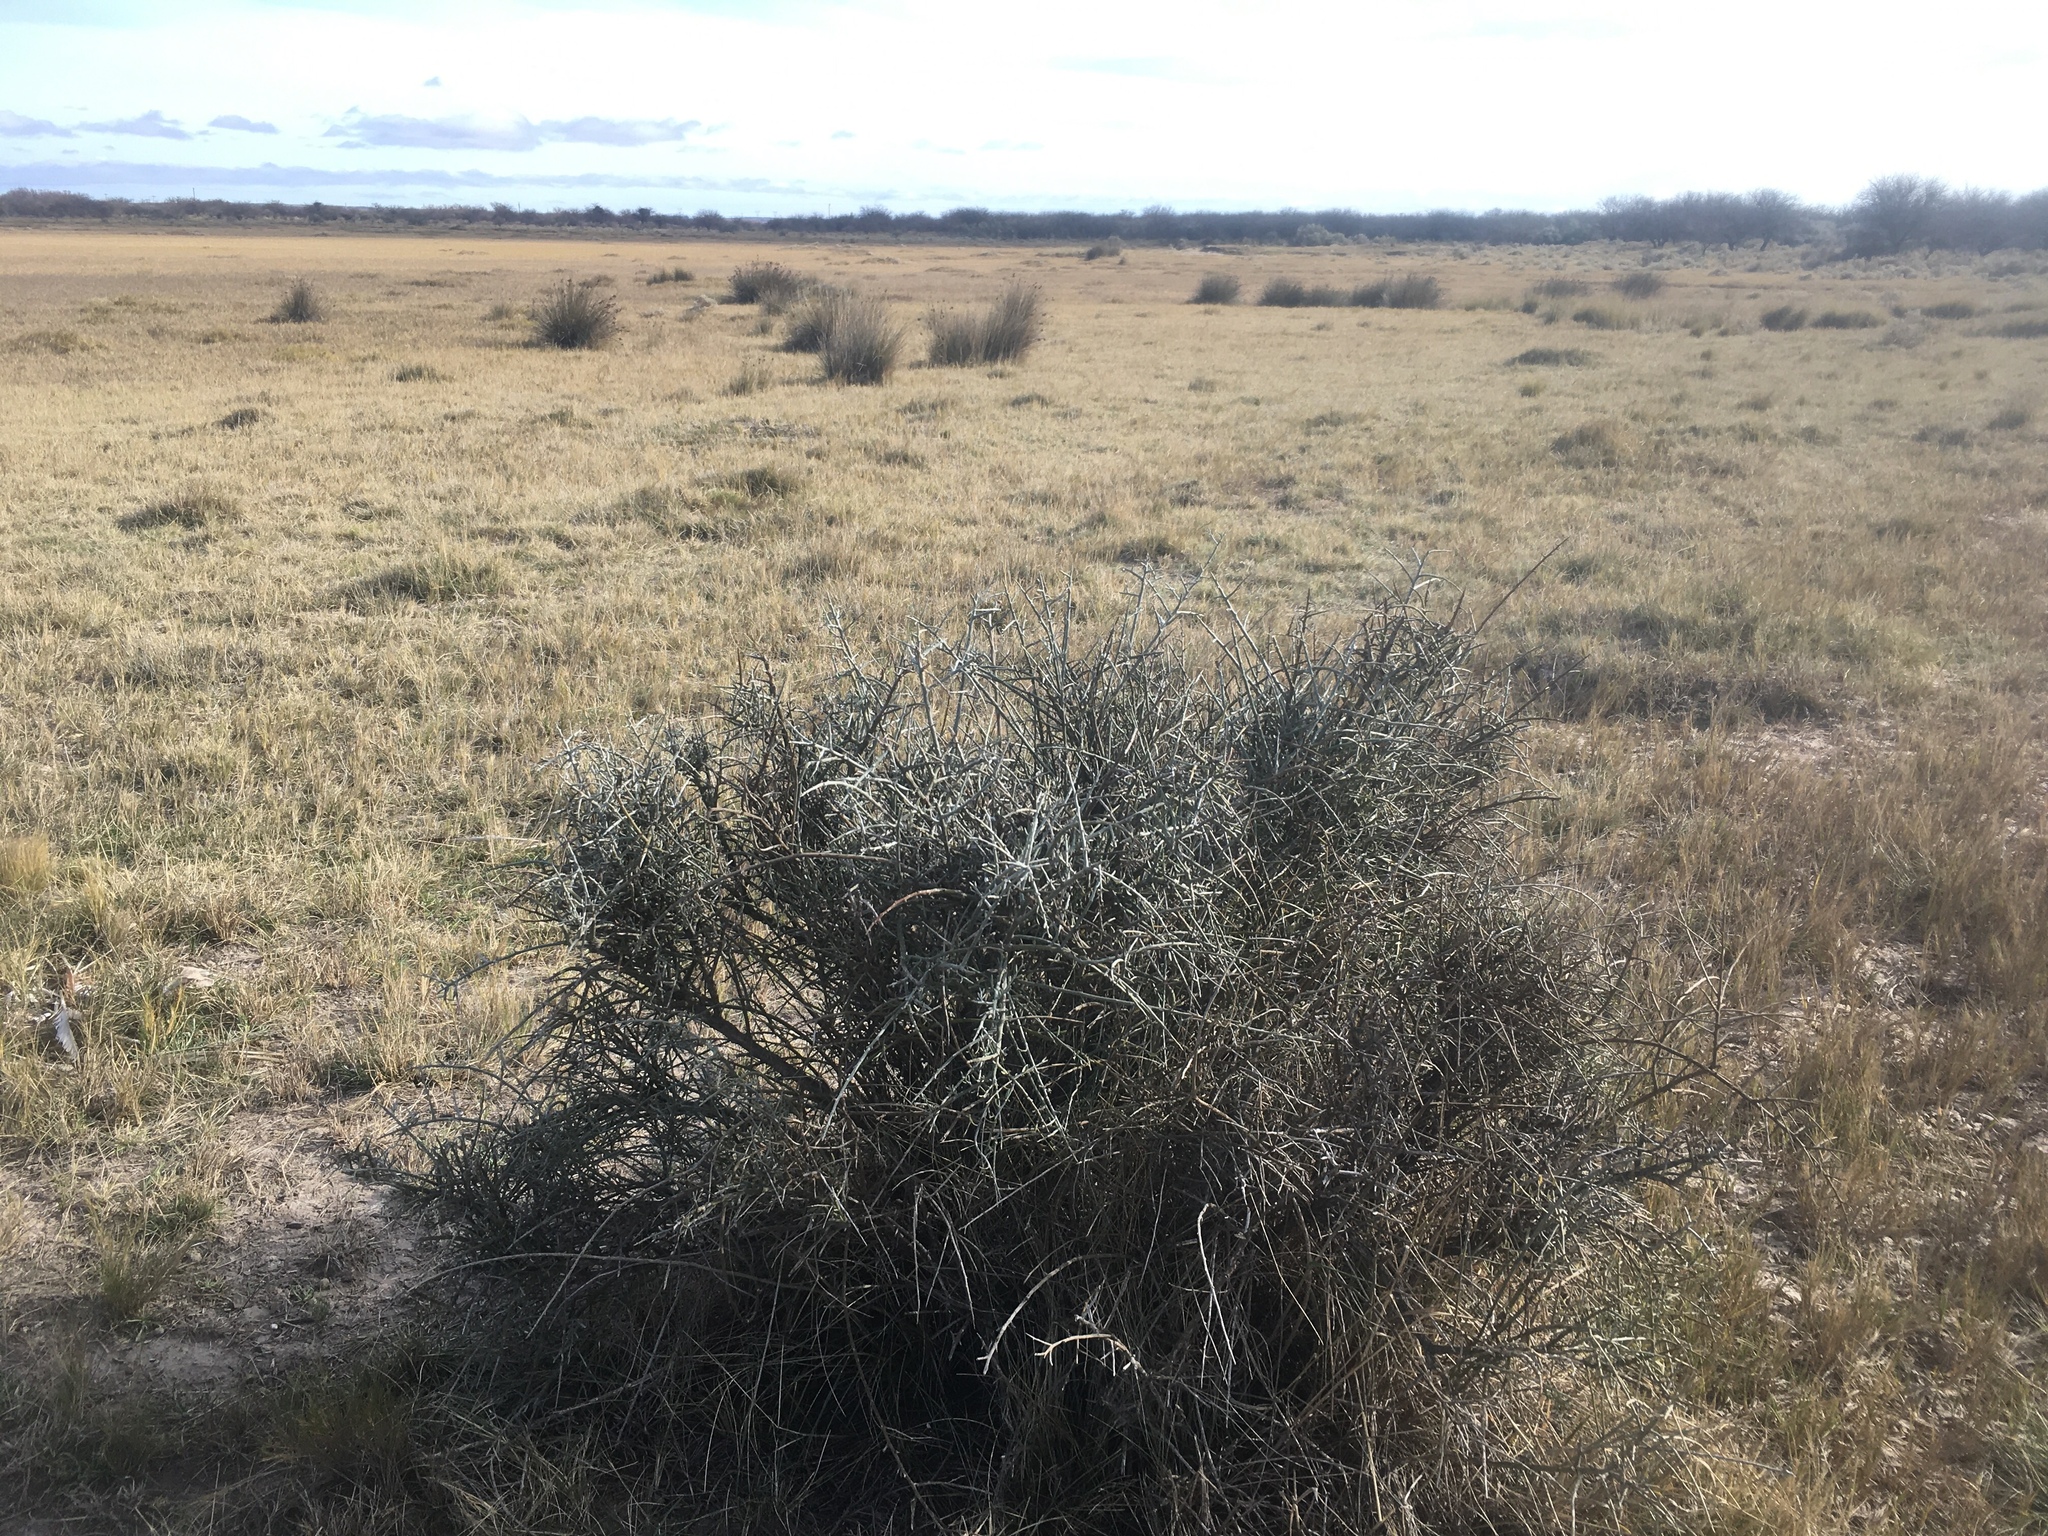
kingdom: Plantae
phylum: Tracheophyta
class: Magnoliopsida
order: Asterales
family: Asteraceae
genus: Cyclolepis
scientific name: Cyclolepis genistoides
